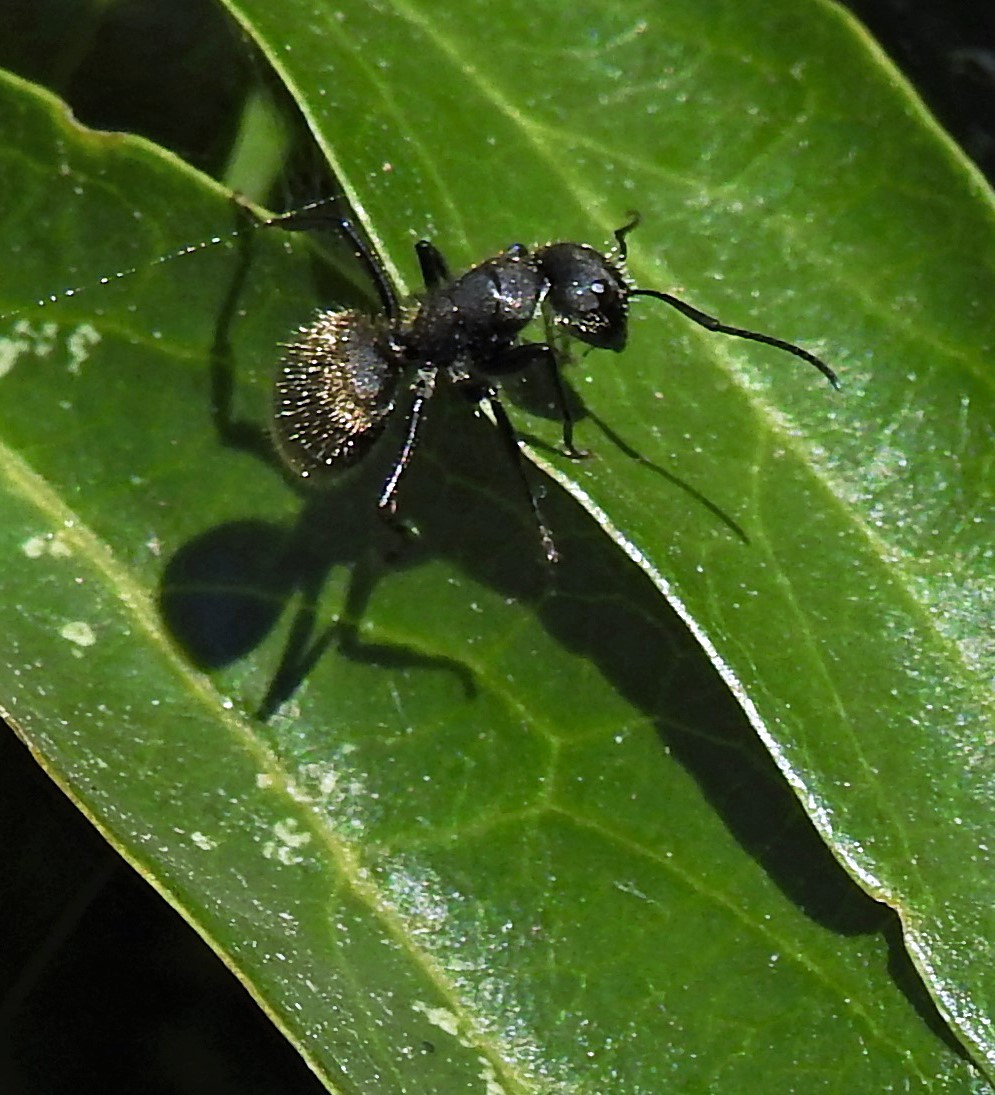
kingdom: Animalia
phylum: Arthropoda
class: Insecta
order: Hymenoptera
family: Formicidae
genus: Camponotus
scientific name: Camponotus mus
